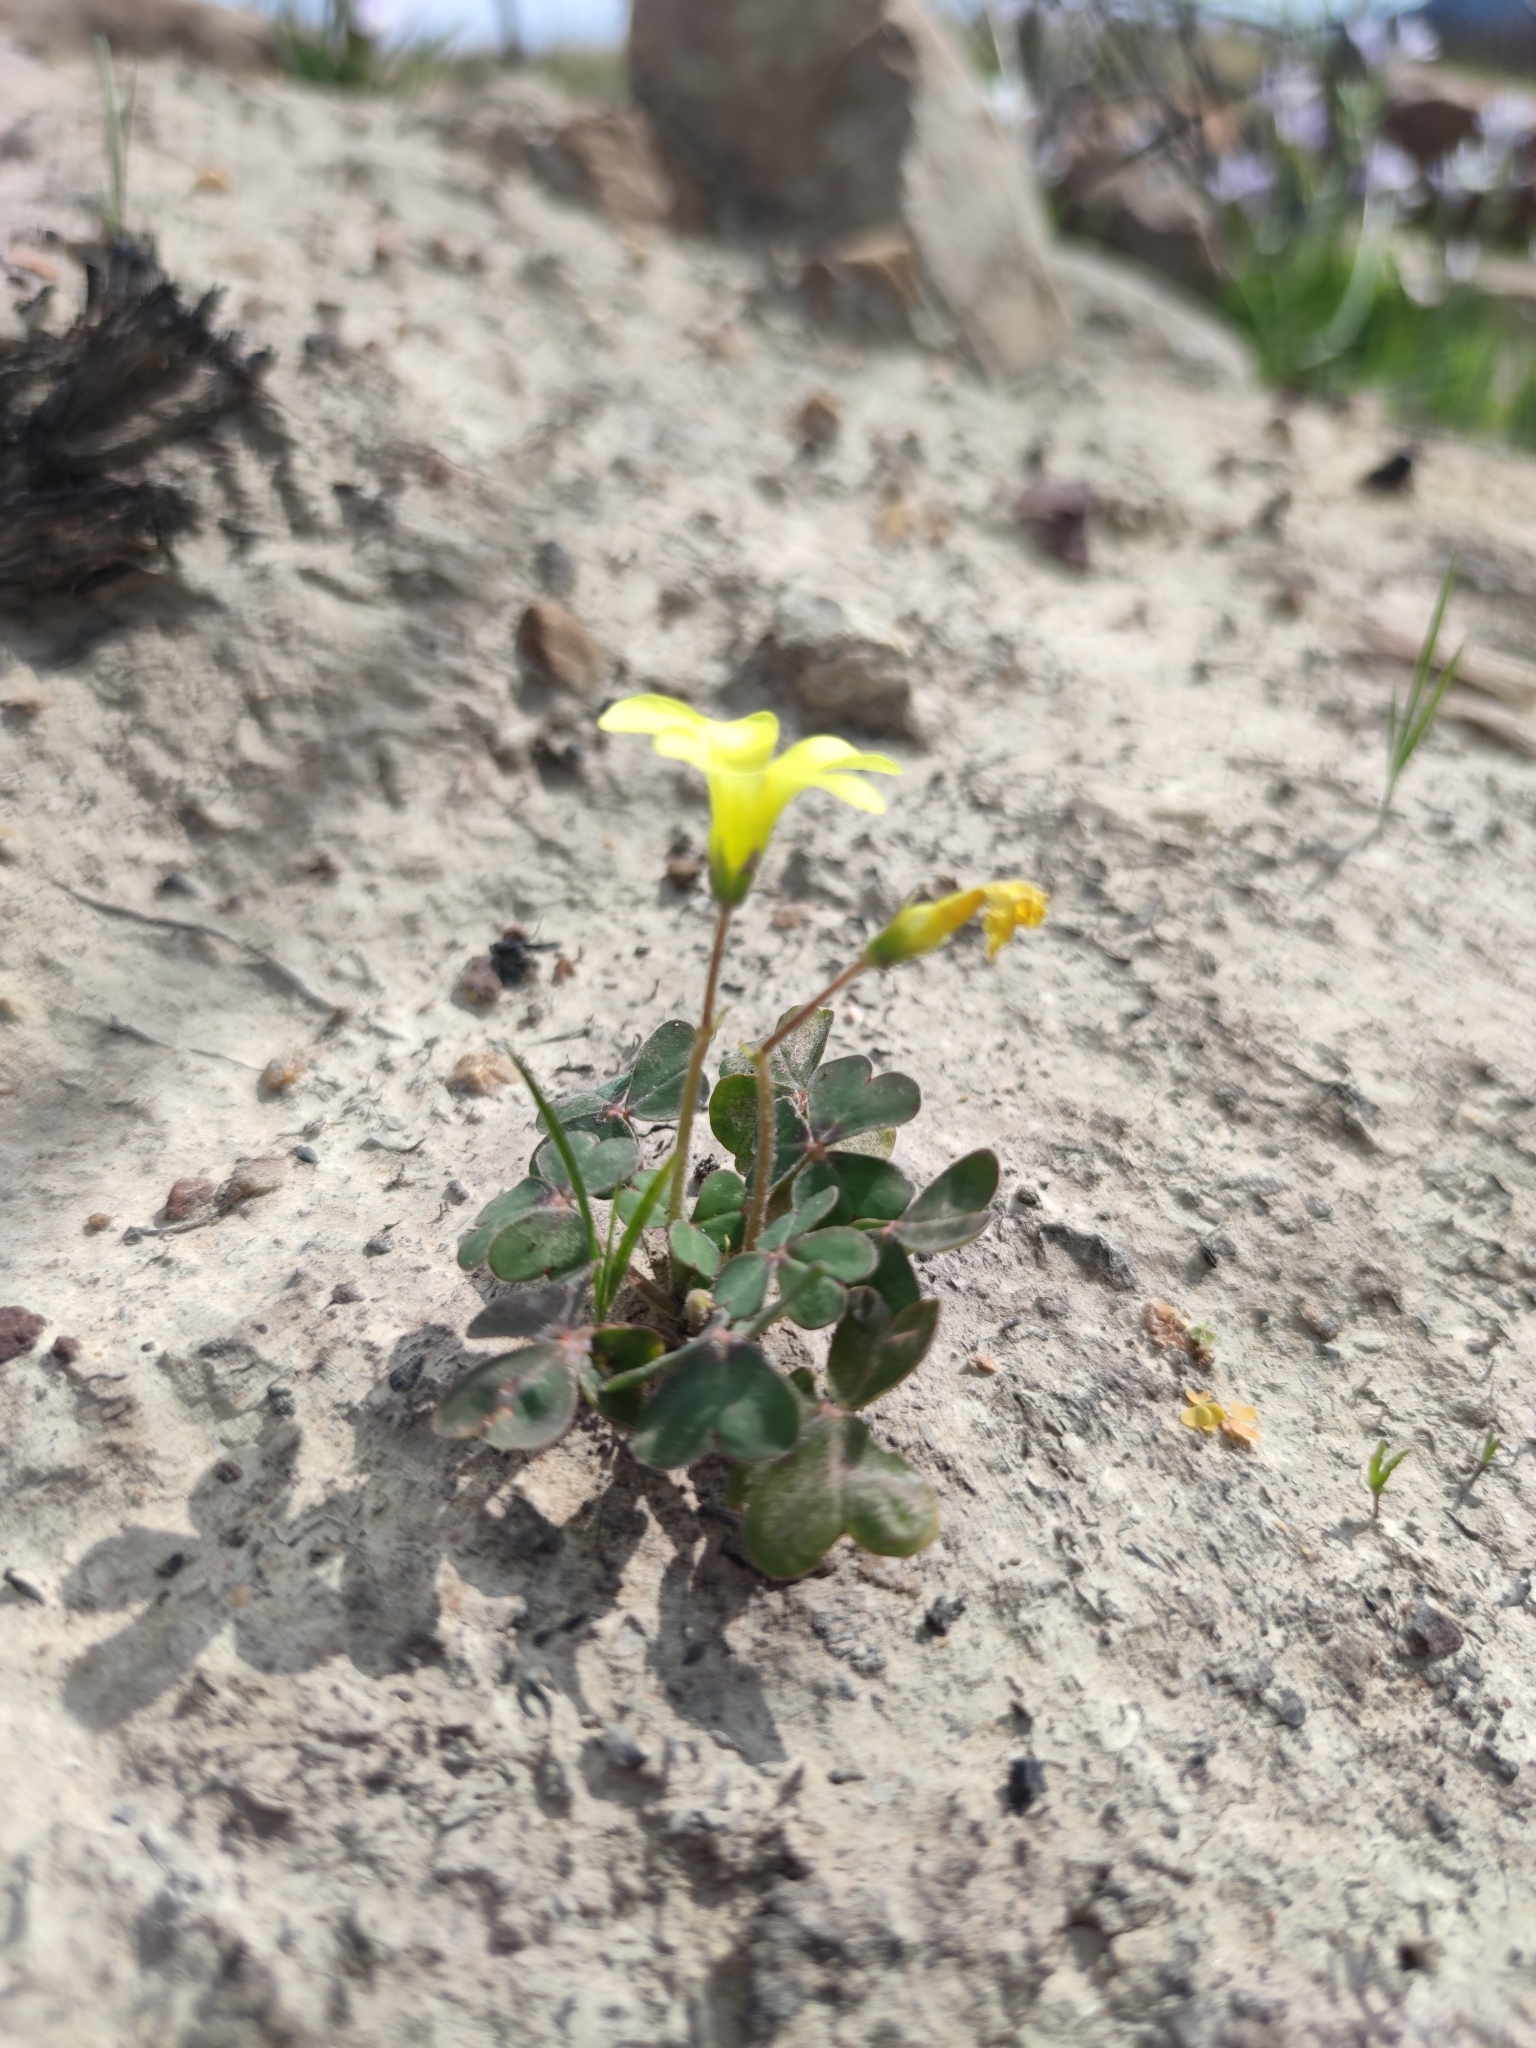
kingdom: Plantae
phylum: Tracheophyta
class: Magnoliopsida
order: Oxalidales
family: Oxalidaceae
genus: Oxalis
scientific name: Oxalis compressa
